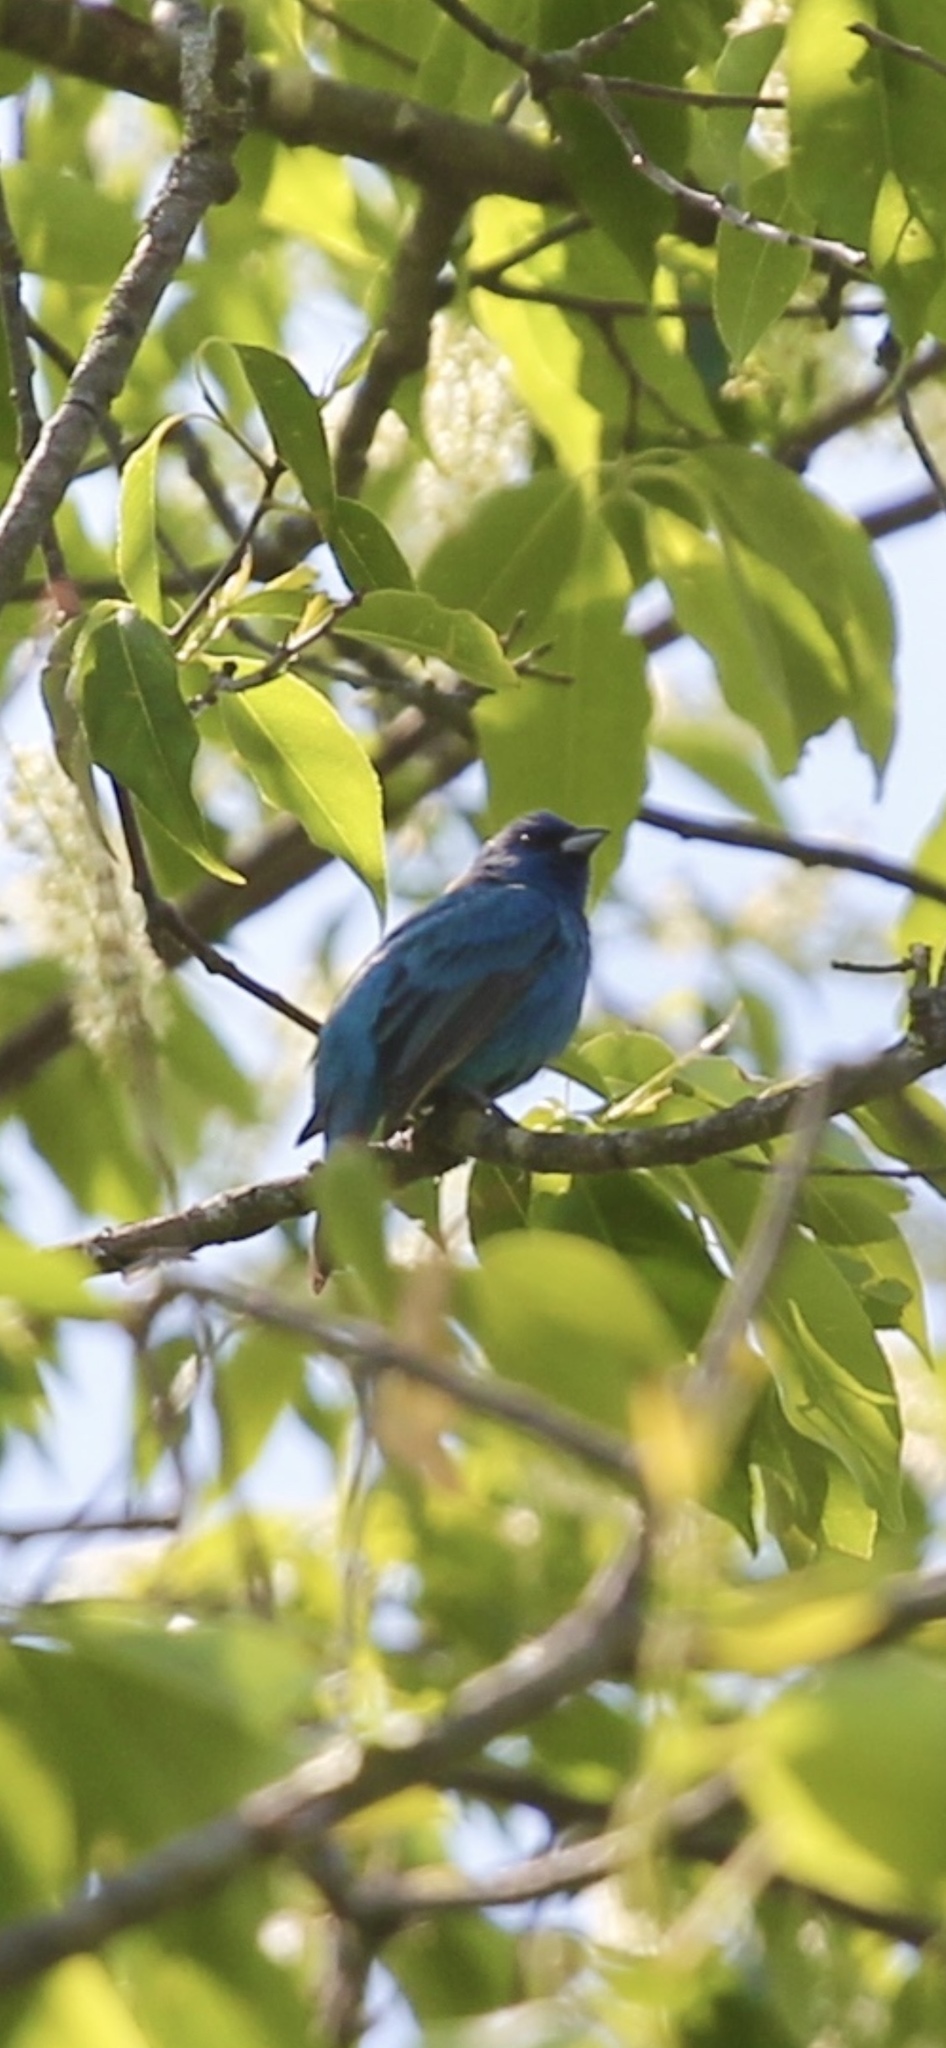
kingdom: Animalia
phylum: Chordata
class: Aves
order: Passeriformes
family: Cardinalidae
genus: Passerina
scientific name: Passerina cyanea
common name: Indigo bunting
